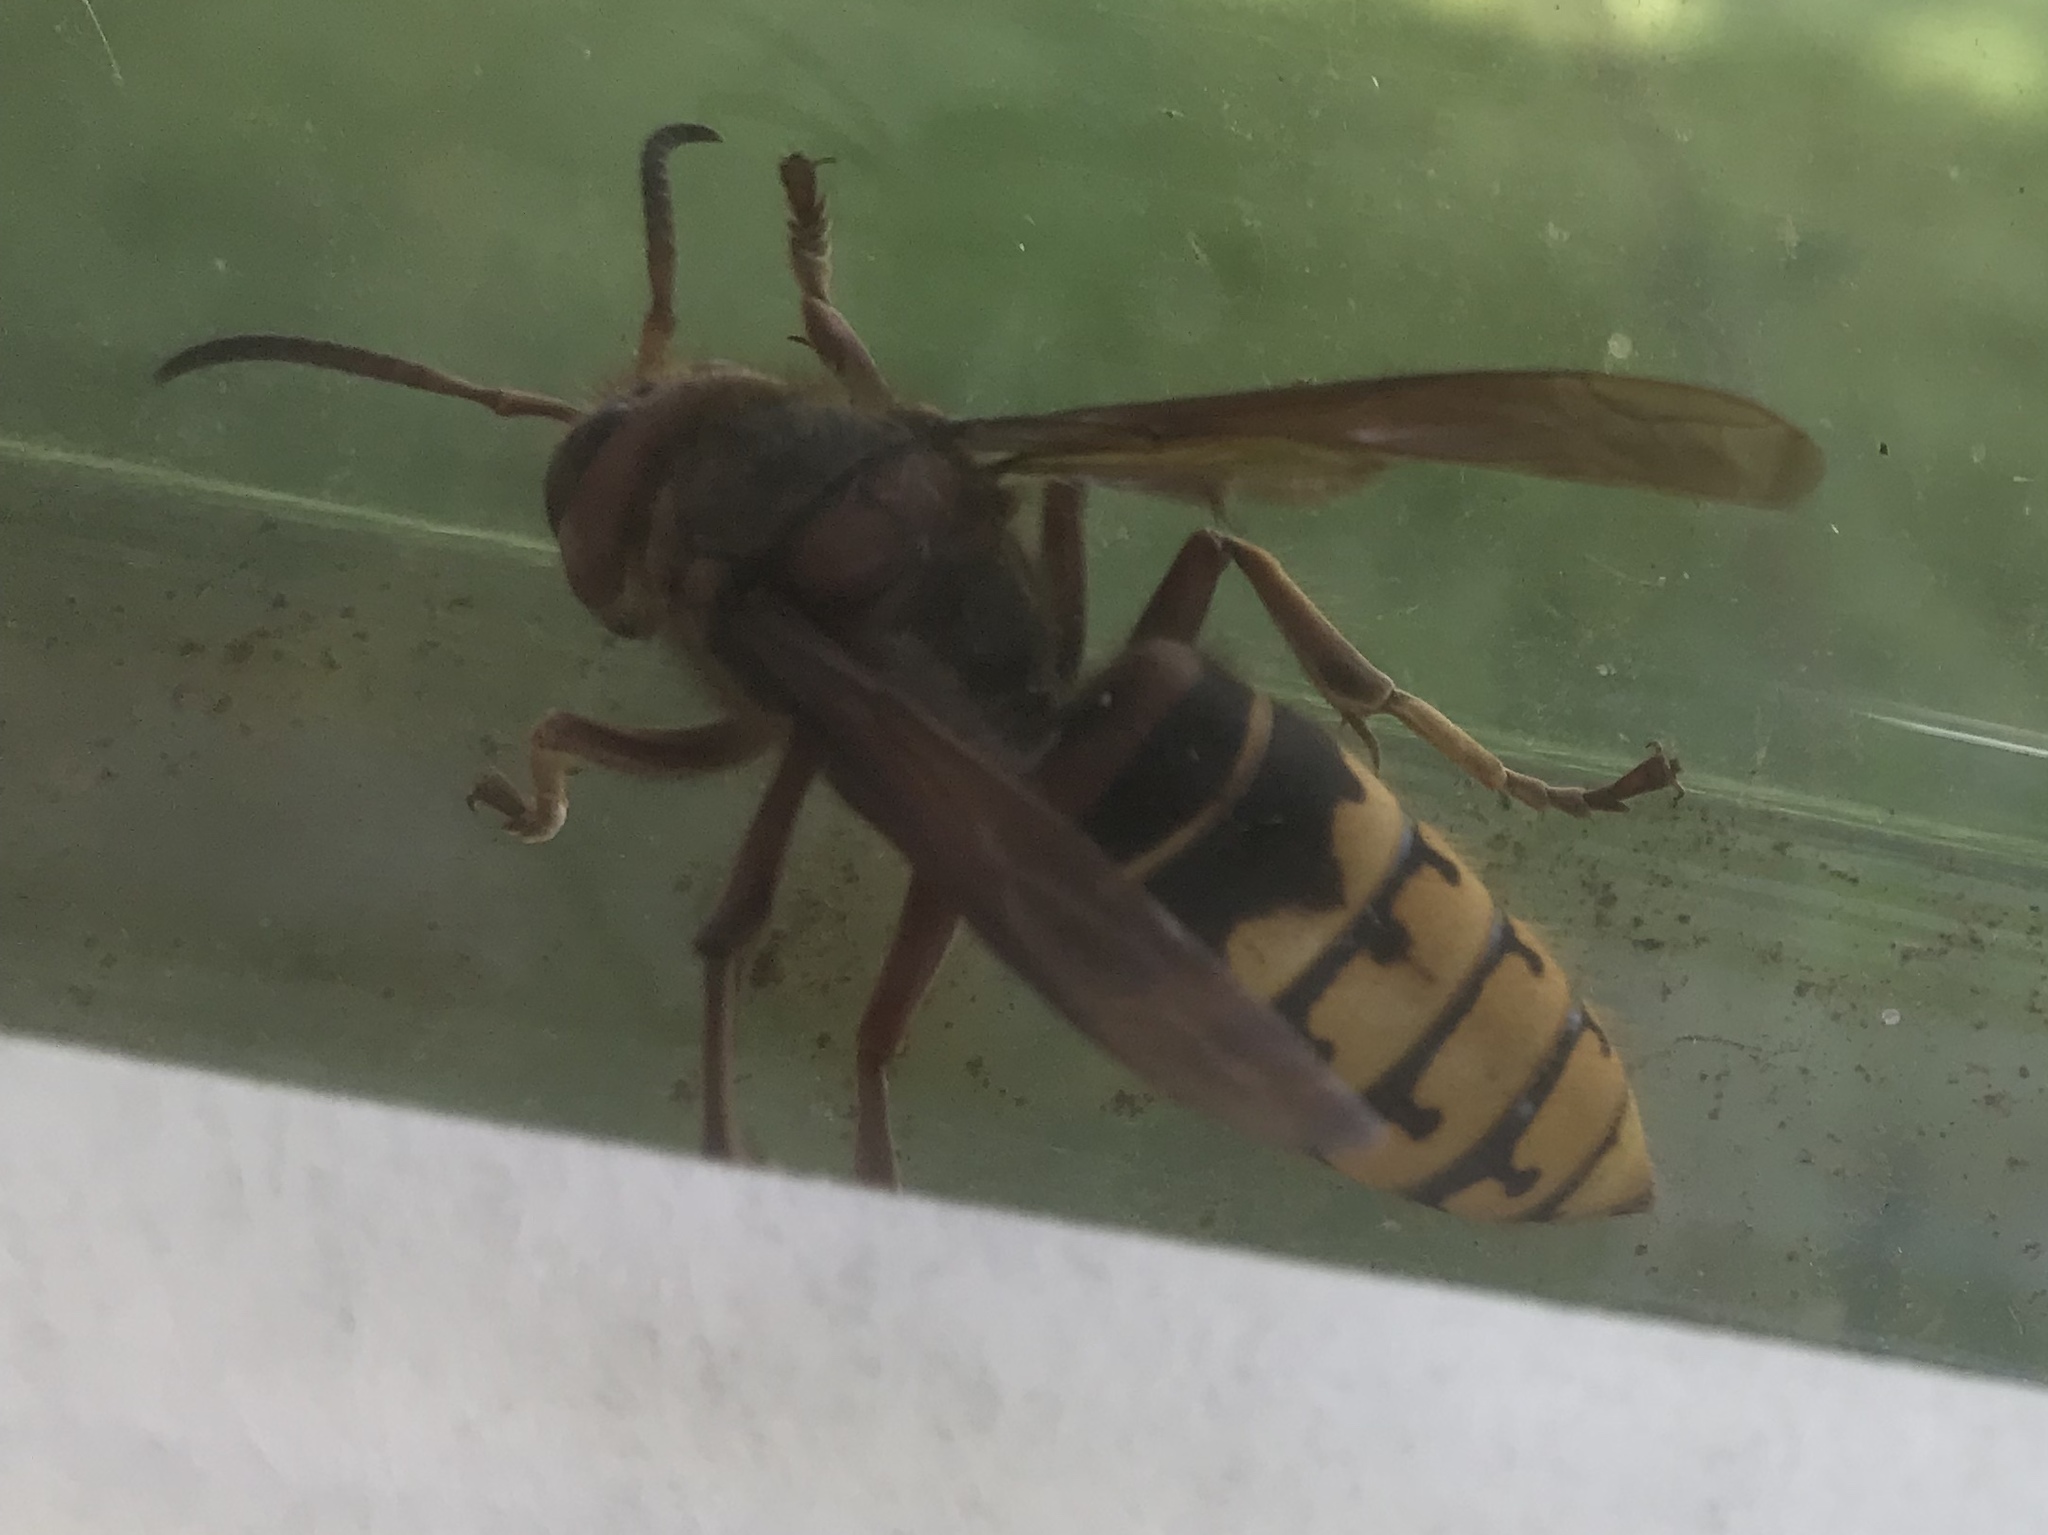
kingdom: Animalia
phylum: Arthropoda
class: Insecta
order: Hymenoptera
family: Vespidae
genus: Vespa
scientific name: Vespa crabro
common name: Hornet
